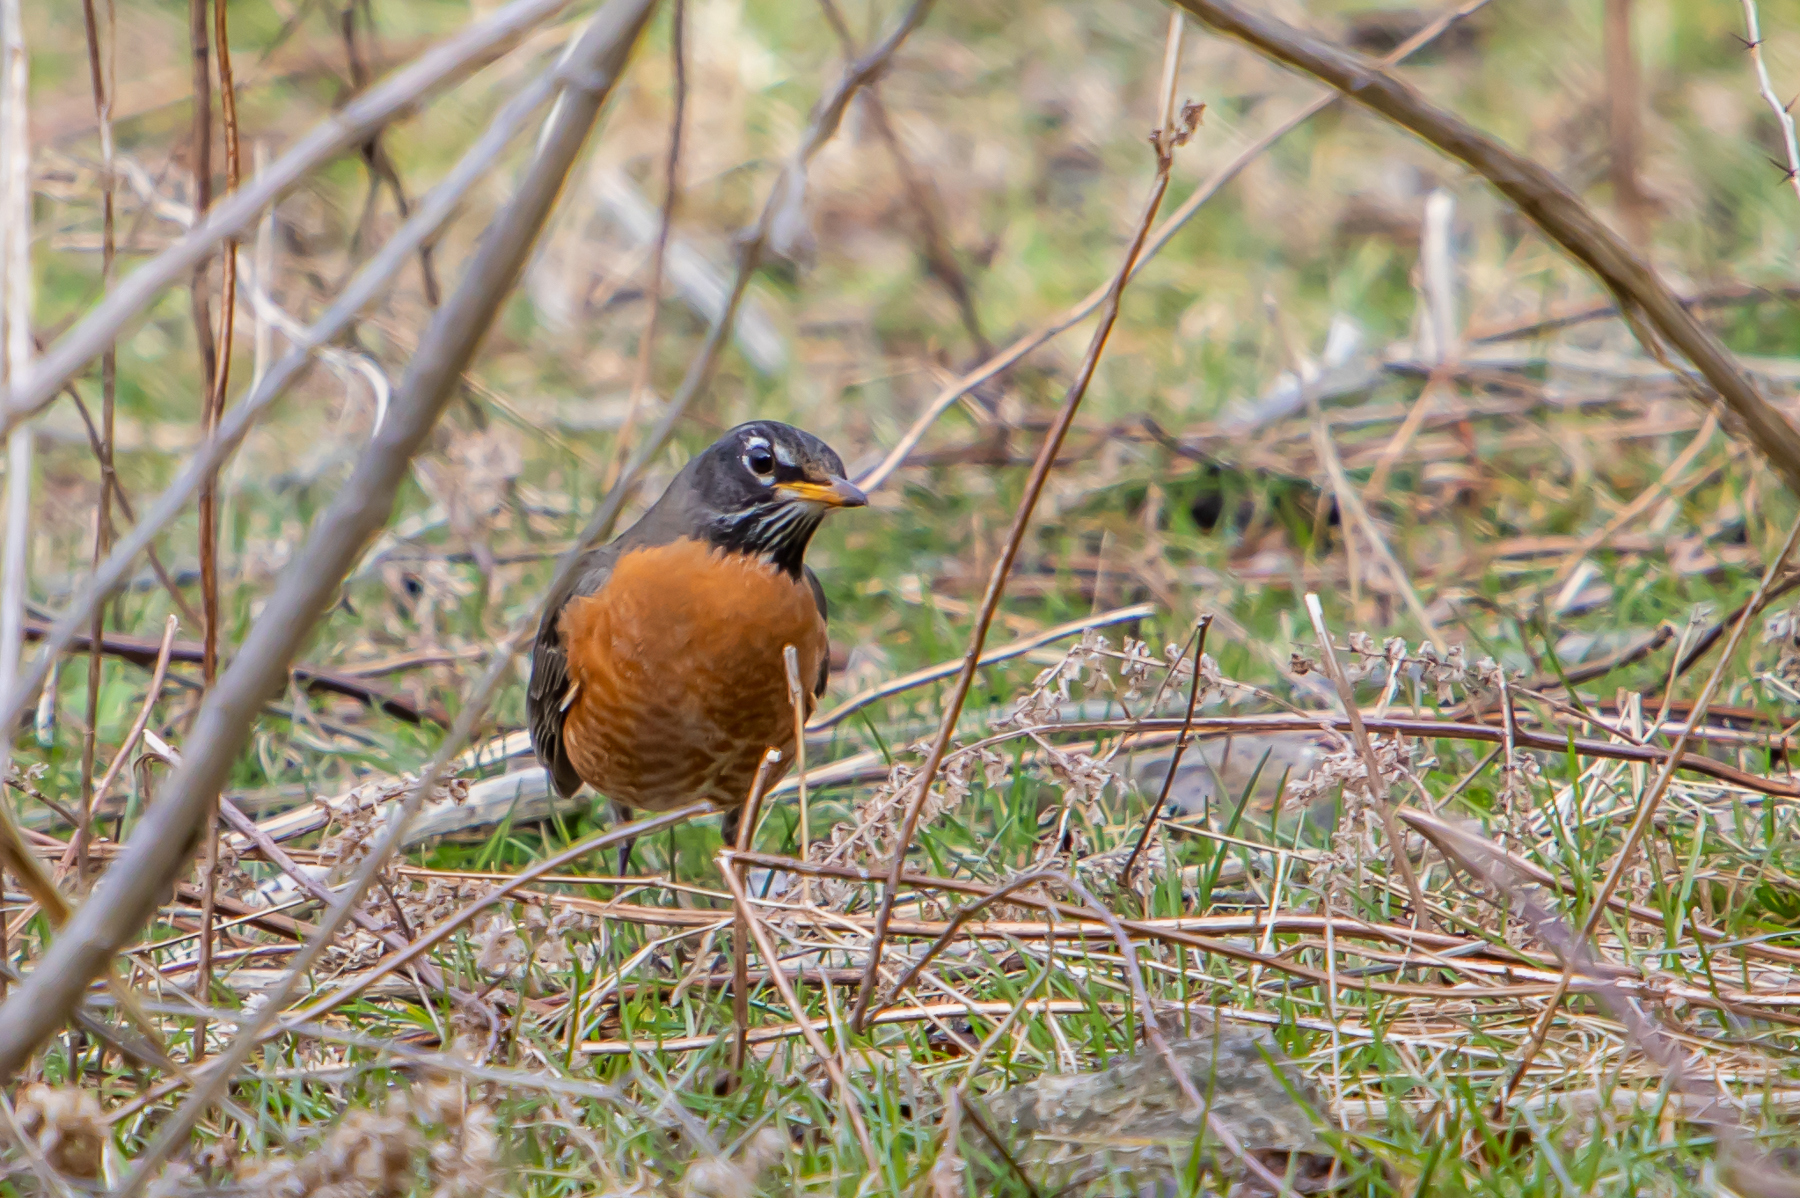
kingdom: Animalia
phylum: Chordata
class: Aves
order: Passeriformes
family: Turdidae
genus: Turdus
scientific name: Turdus migratorius
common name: American robin
